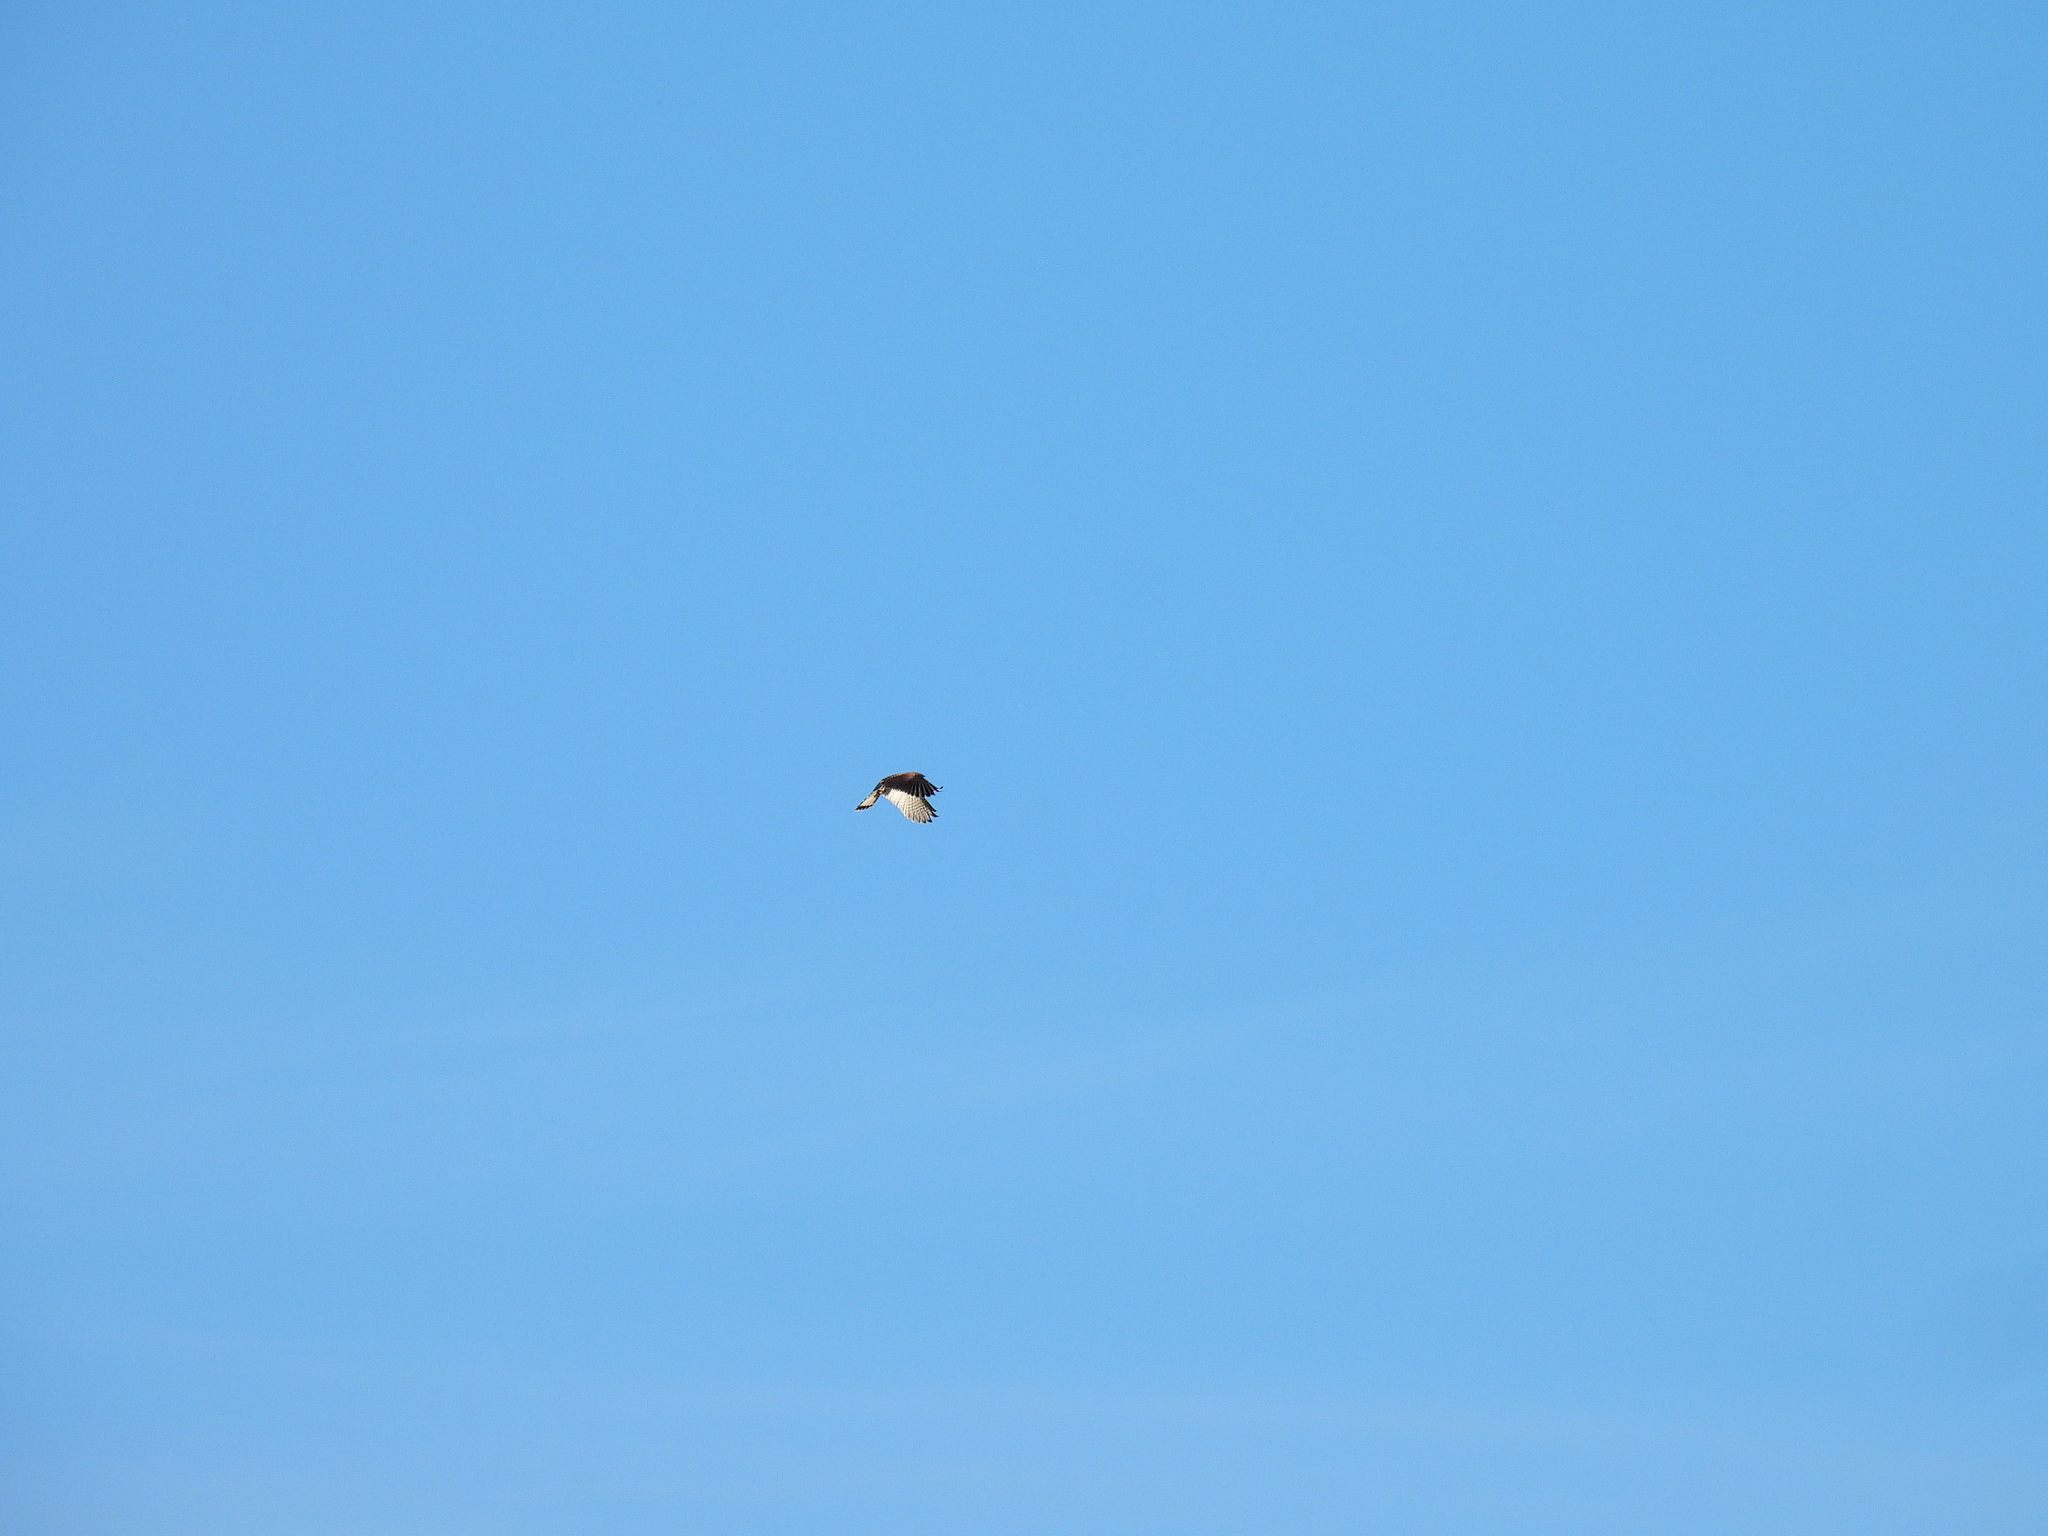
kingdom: Animalia
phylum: Chordata
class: Aves
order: Falconiformes
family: Falconidae
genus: Falco
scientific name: Falco tinnunculus
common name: Common kestrel
